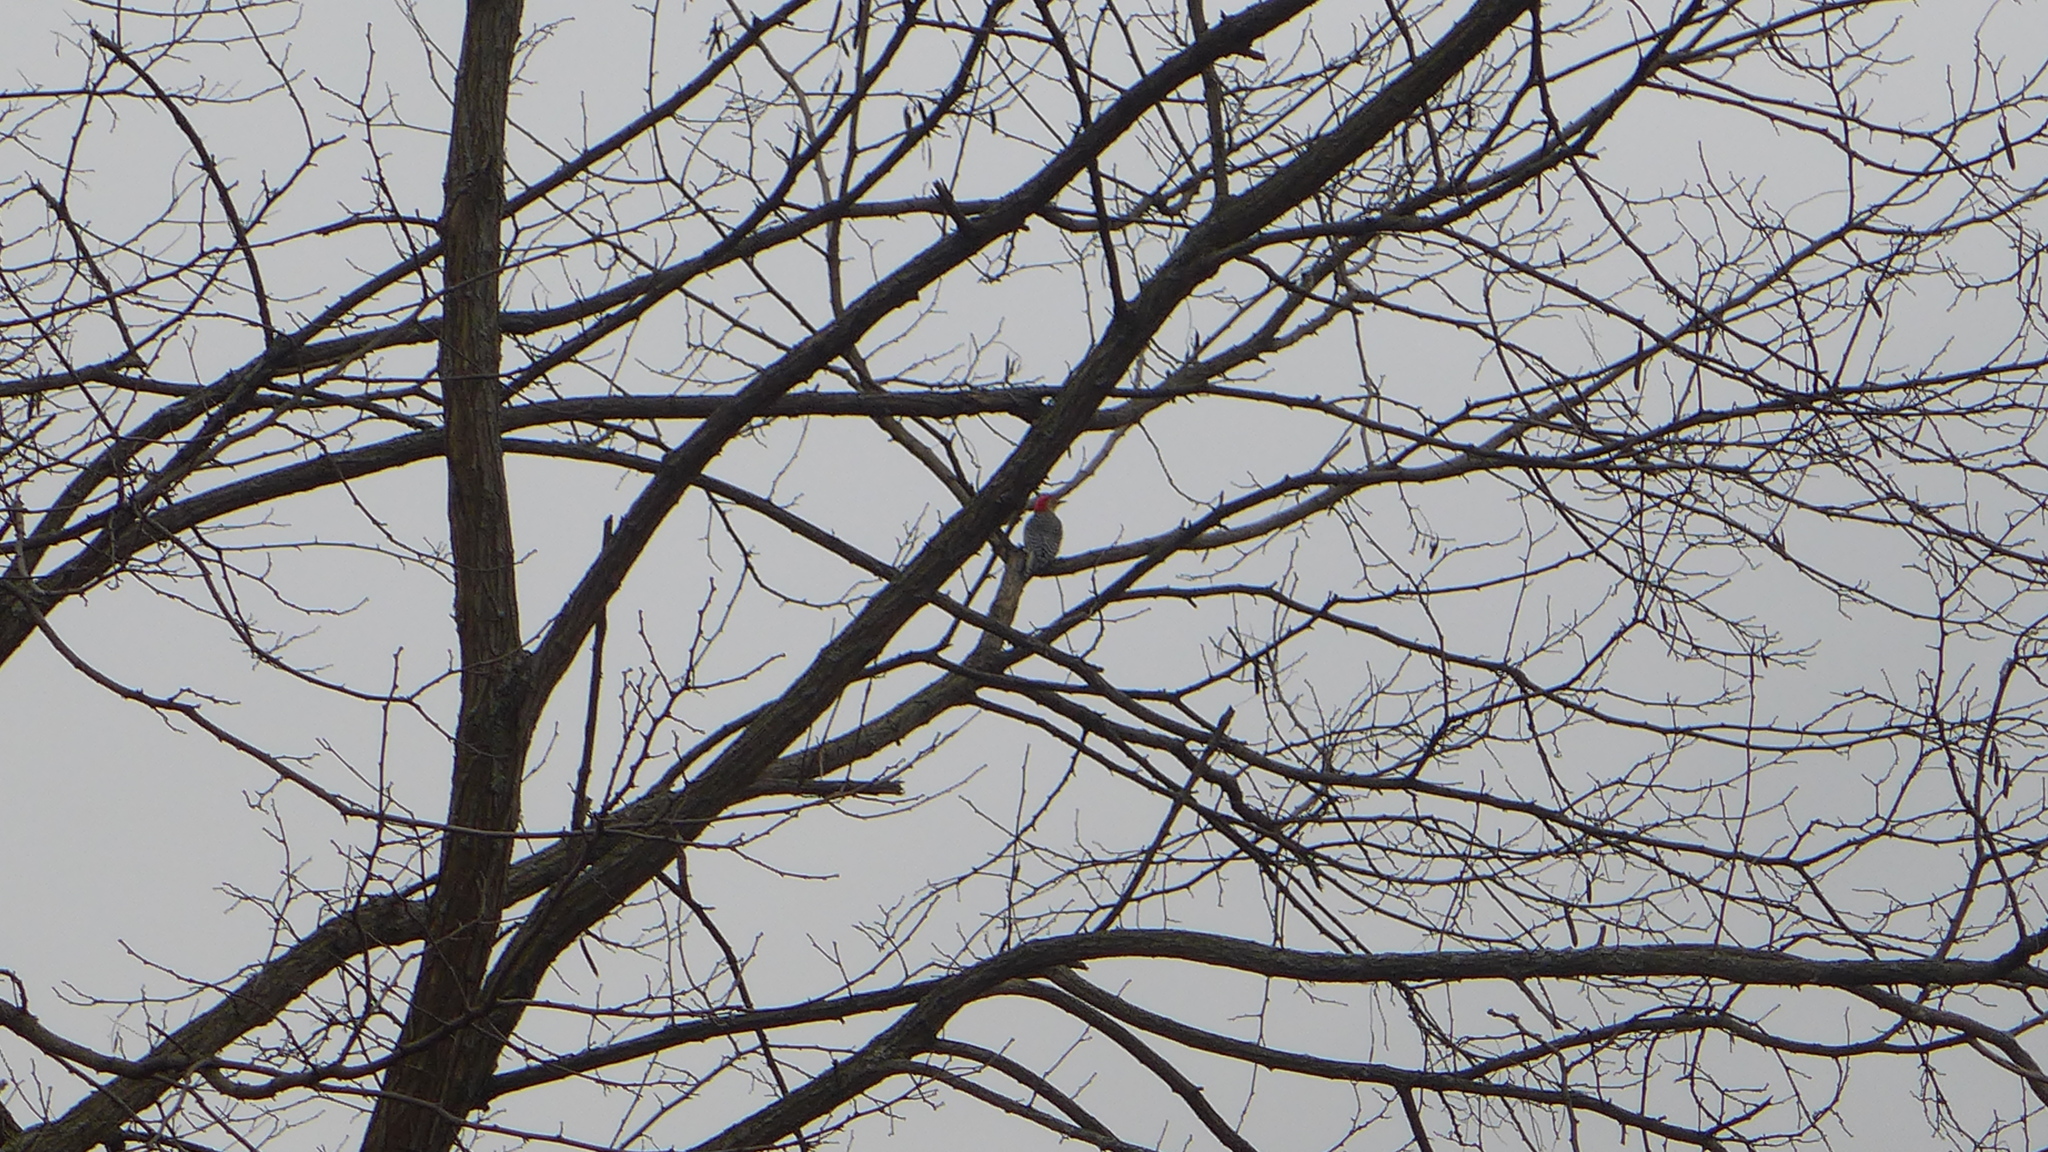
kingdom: Animalia
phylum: Chordata
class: Aves
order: Piciformes
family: Picidae
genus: Melanerpes
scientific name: Melanerpes carolinus
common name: Red-bellied woodpecker
